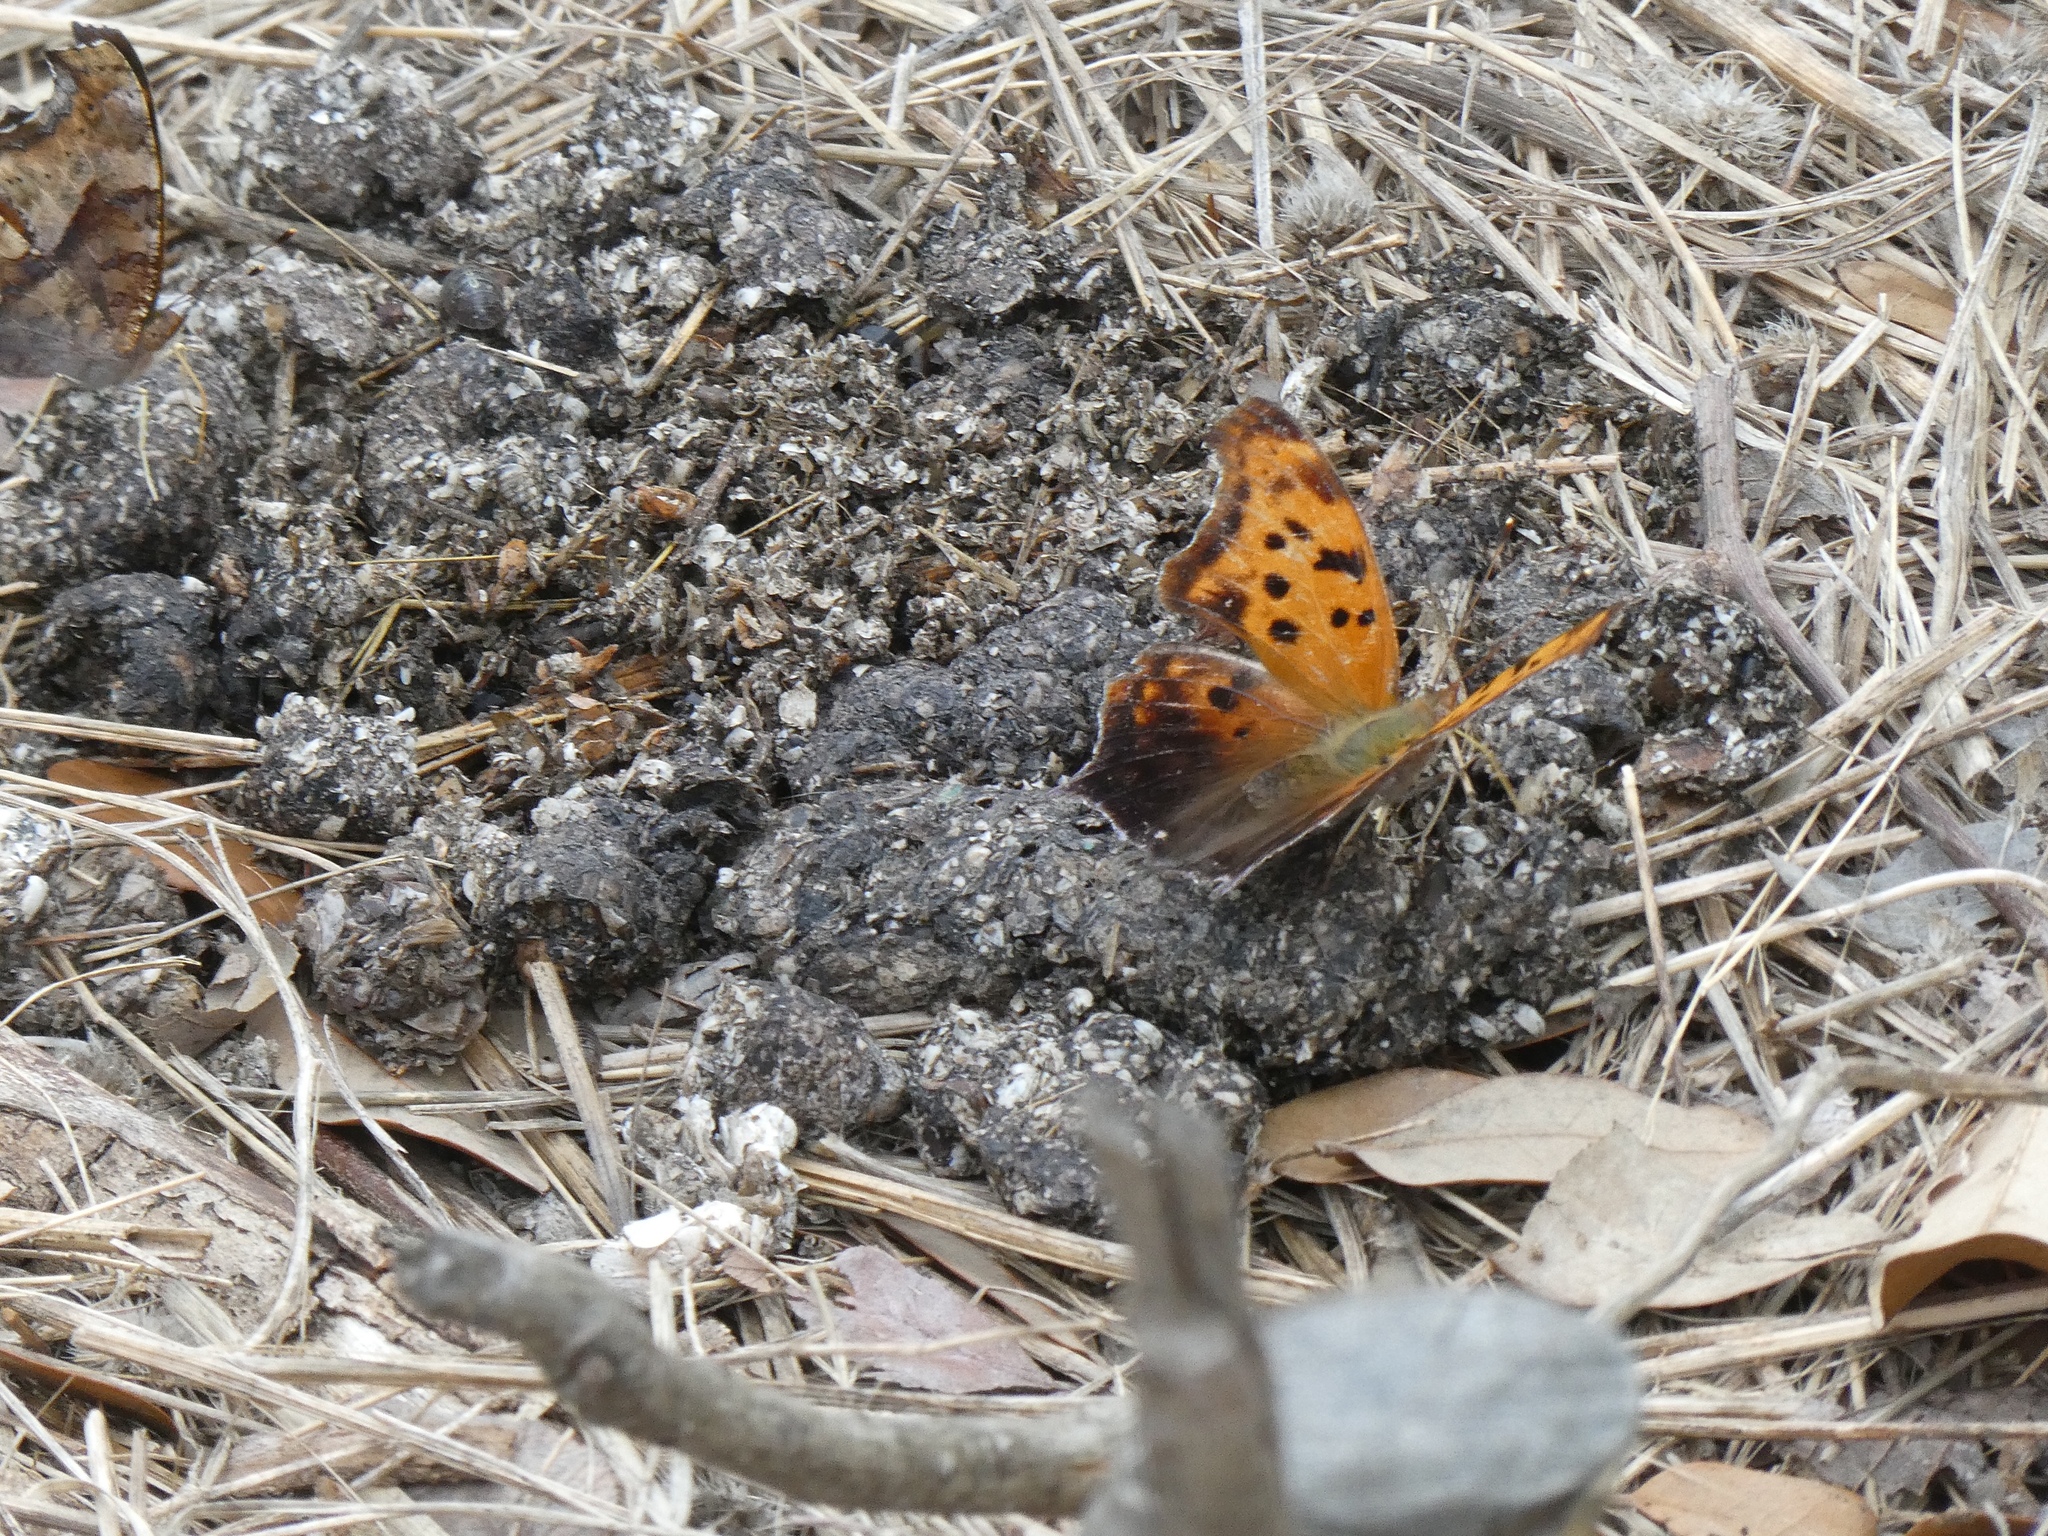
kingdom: Animalia
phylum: Arthropoda
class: Insecta
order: Lepidoptera
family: Nymphalidae
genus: Polygonia
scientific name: Polygonia interrogationis
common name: Question mark
